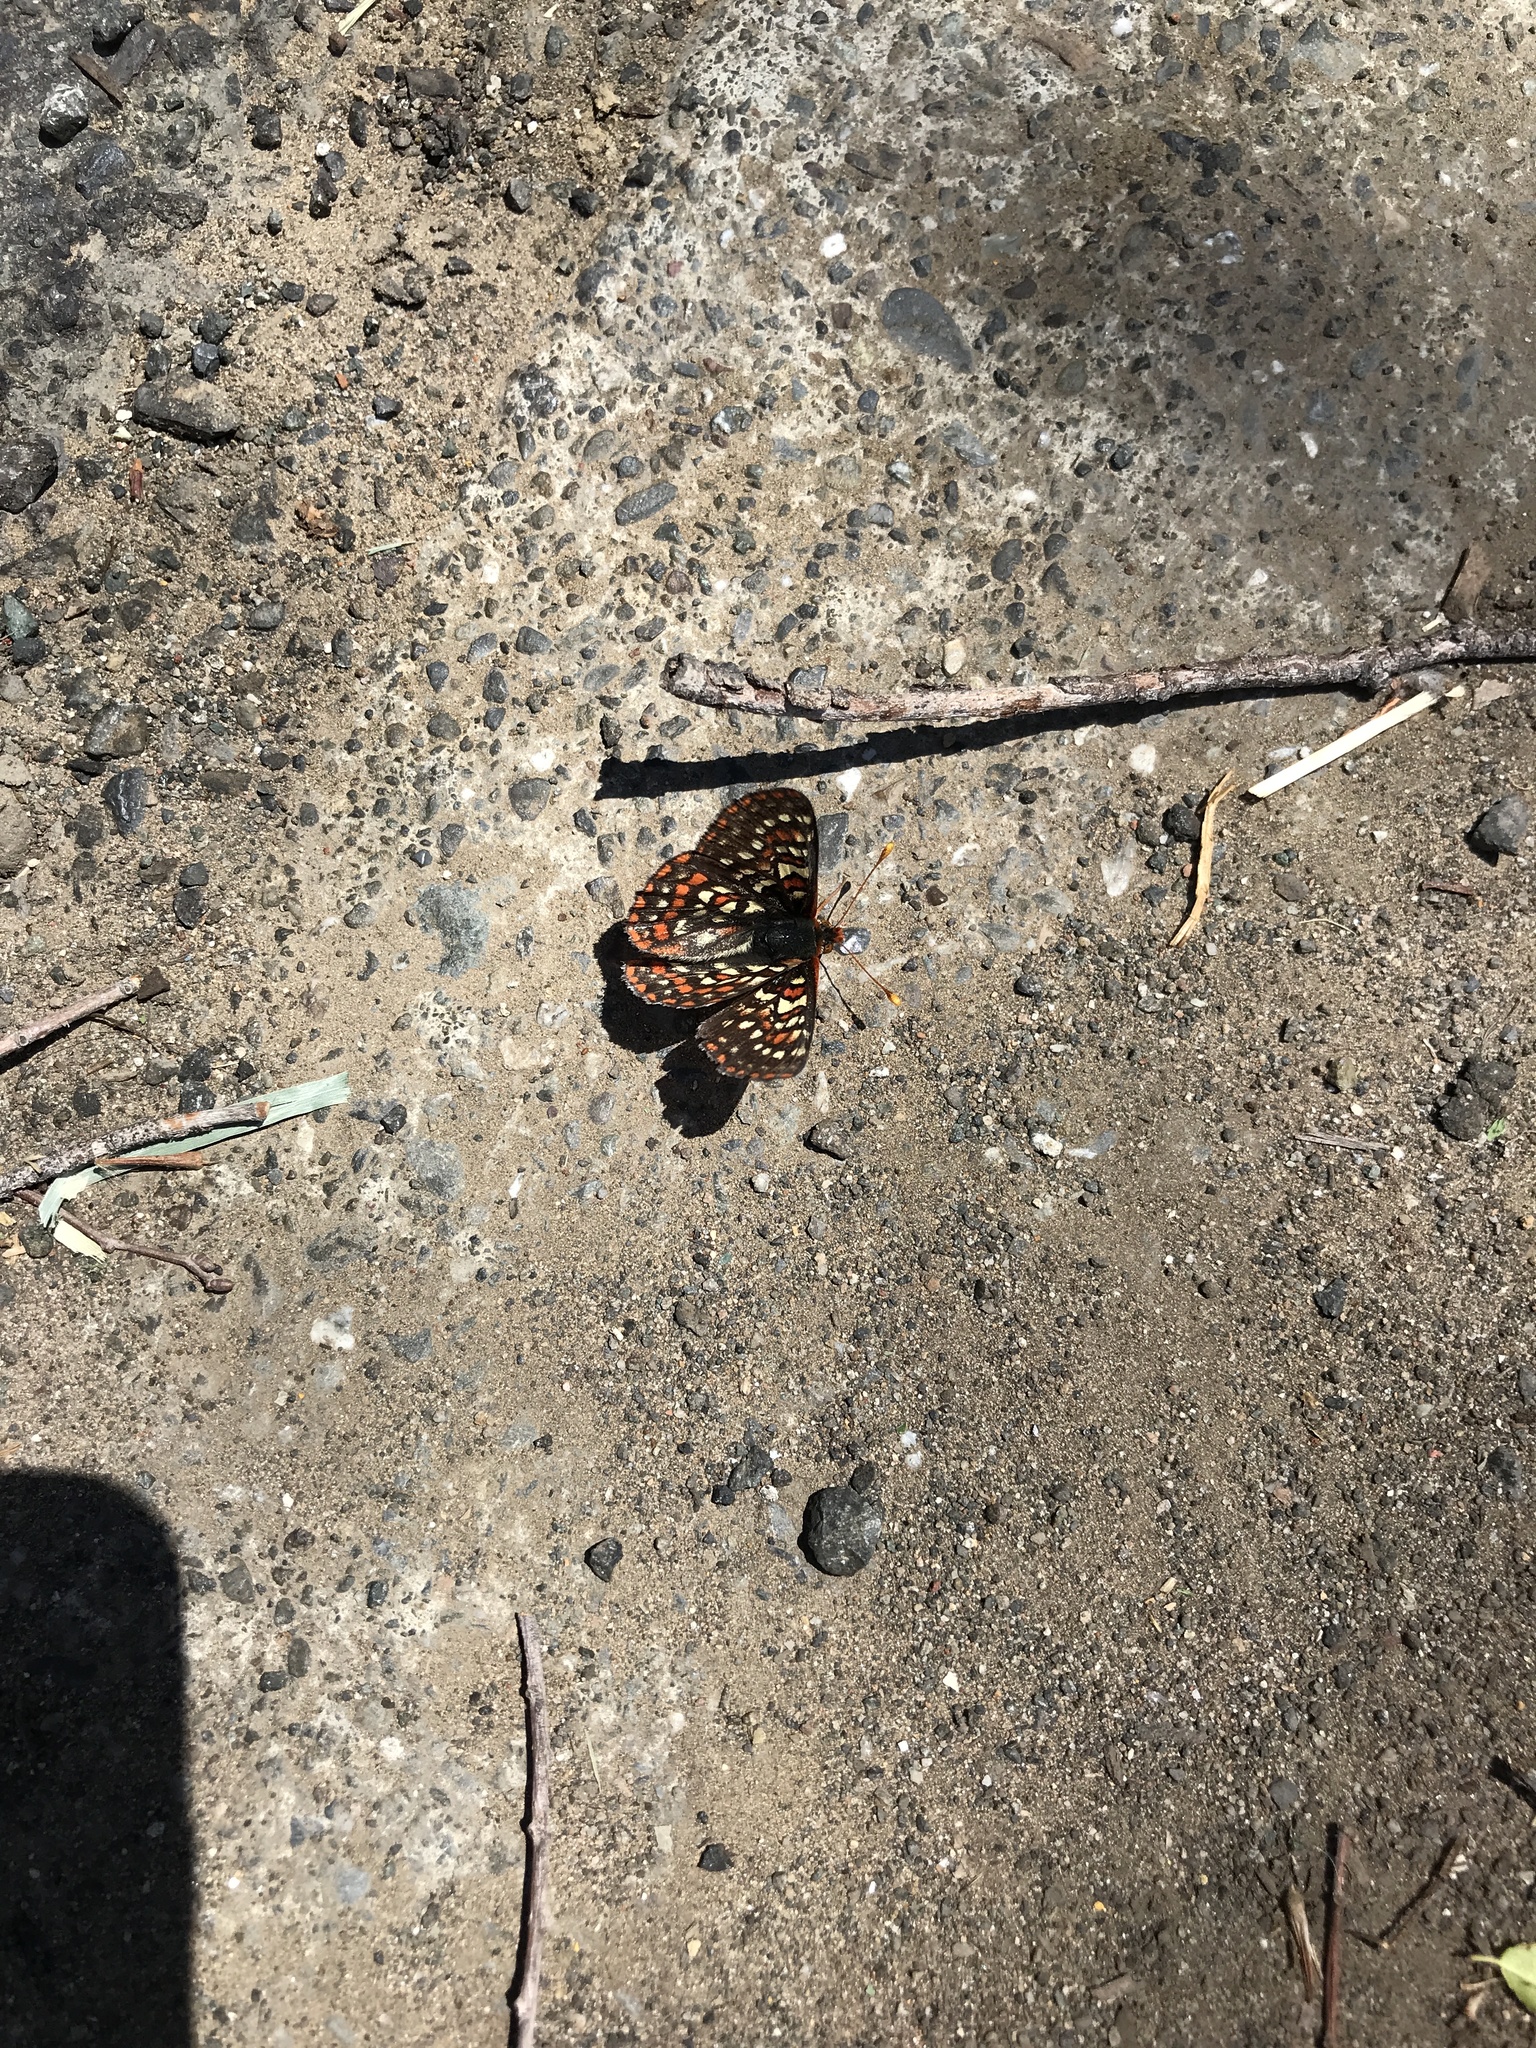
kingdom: Animalia
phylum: Arthropoda
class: Insecta
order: Lepidoptera
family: Nymphalidae
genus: Occidryas
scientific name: Occidryas editha
